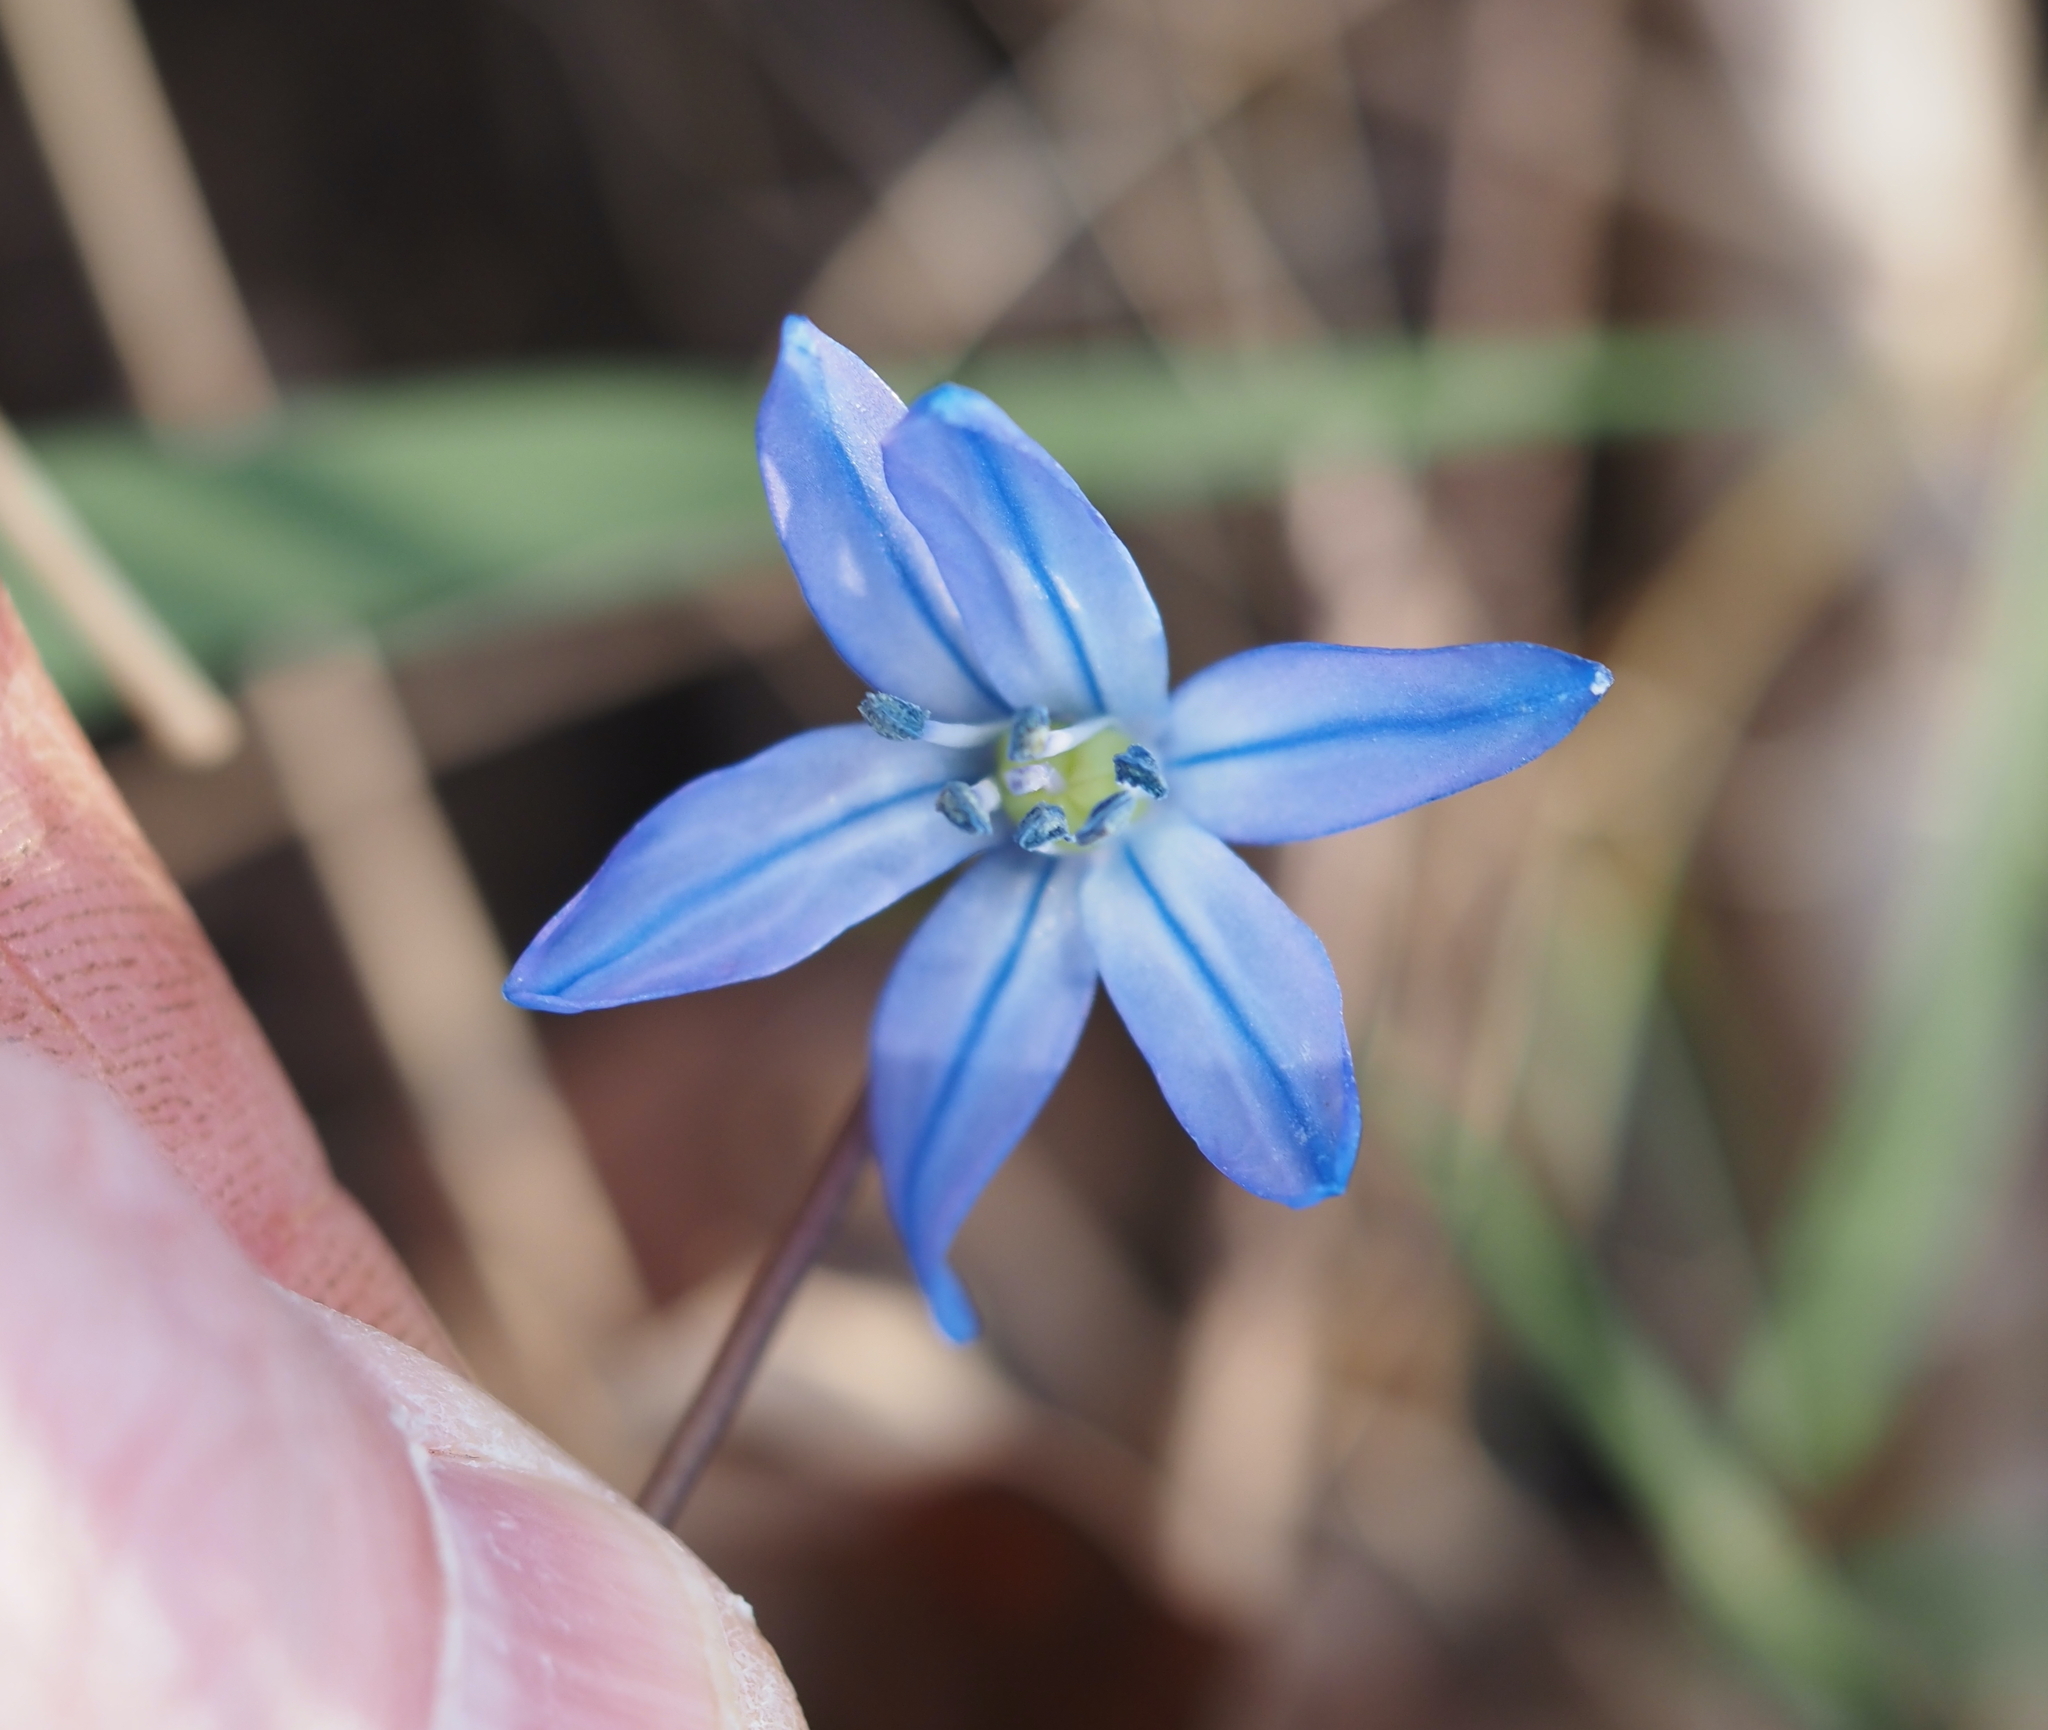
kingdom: Plantae
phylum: Tracheophyta
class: Liliopsida
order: Asparagales
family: Asparagaceae
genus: Scilla
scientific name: Scilla siberica
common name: Siberian squill
